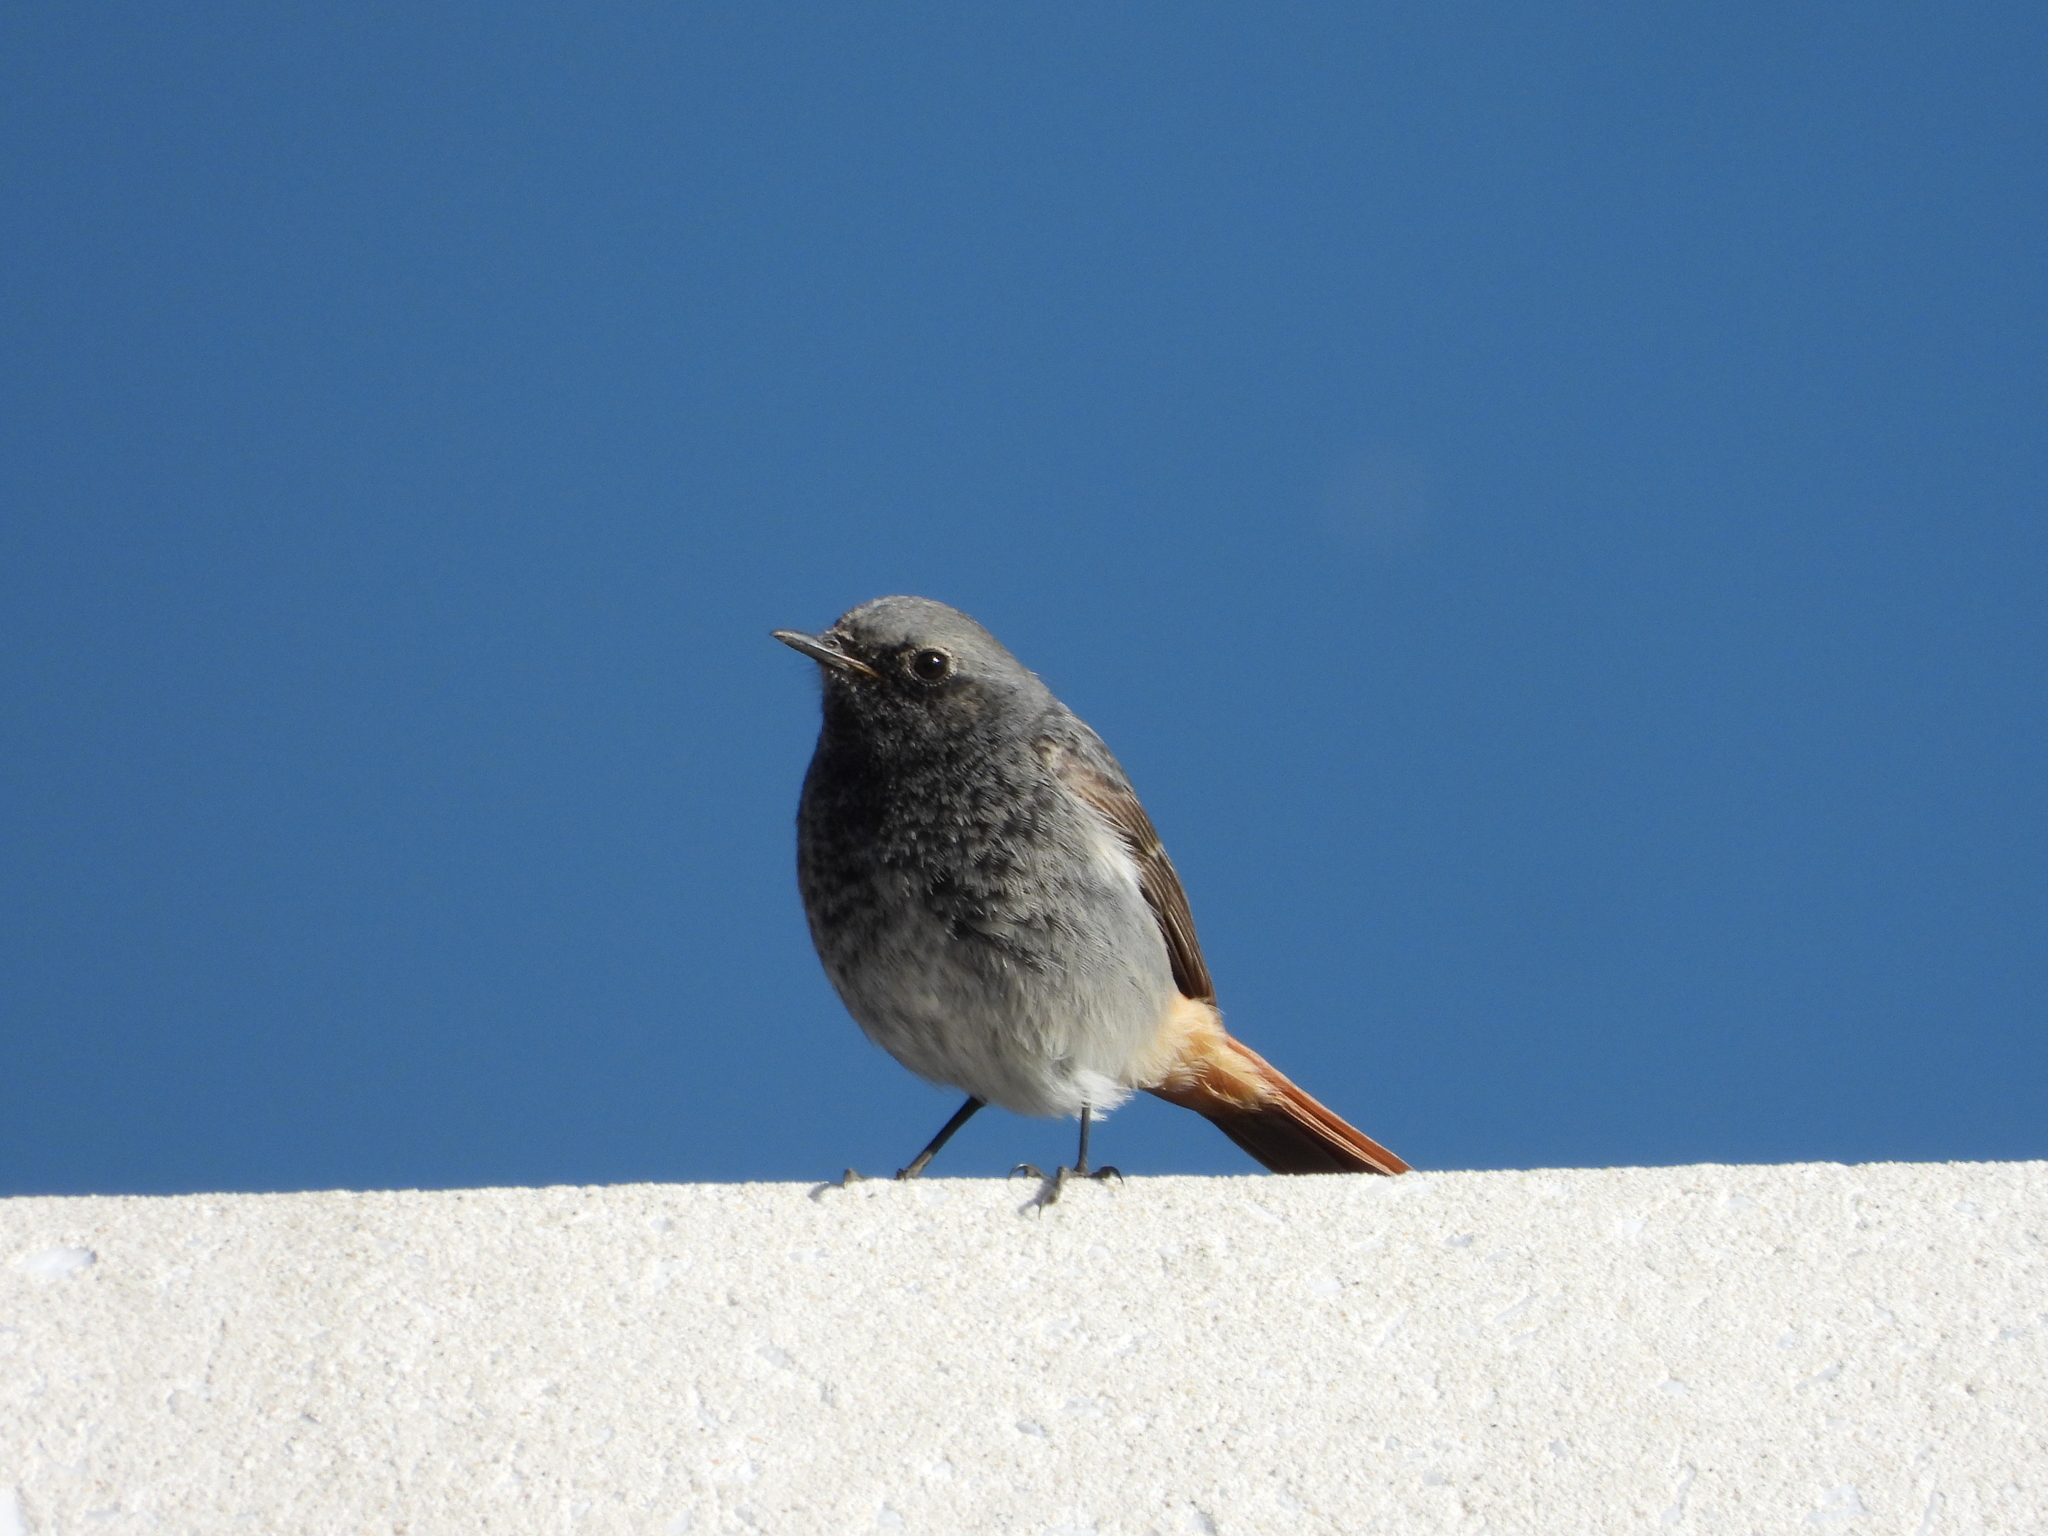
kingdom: Animalia
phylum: Chordata
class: Aves
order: Passeriformes
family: Muscicapidae
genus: Phoenicurus
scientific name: Phoenicurus ochruros
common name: Black redstart
